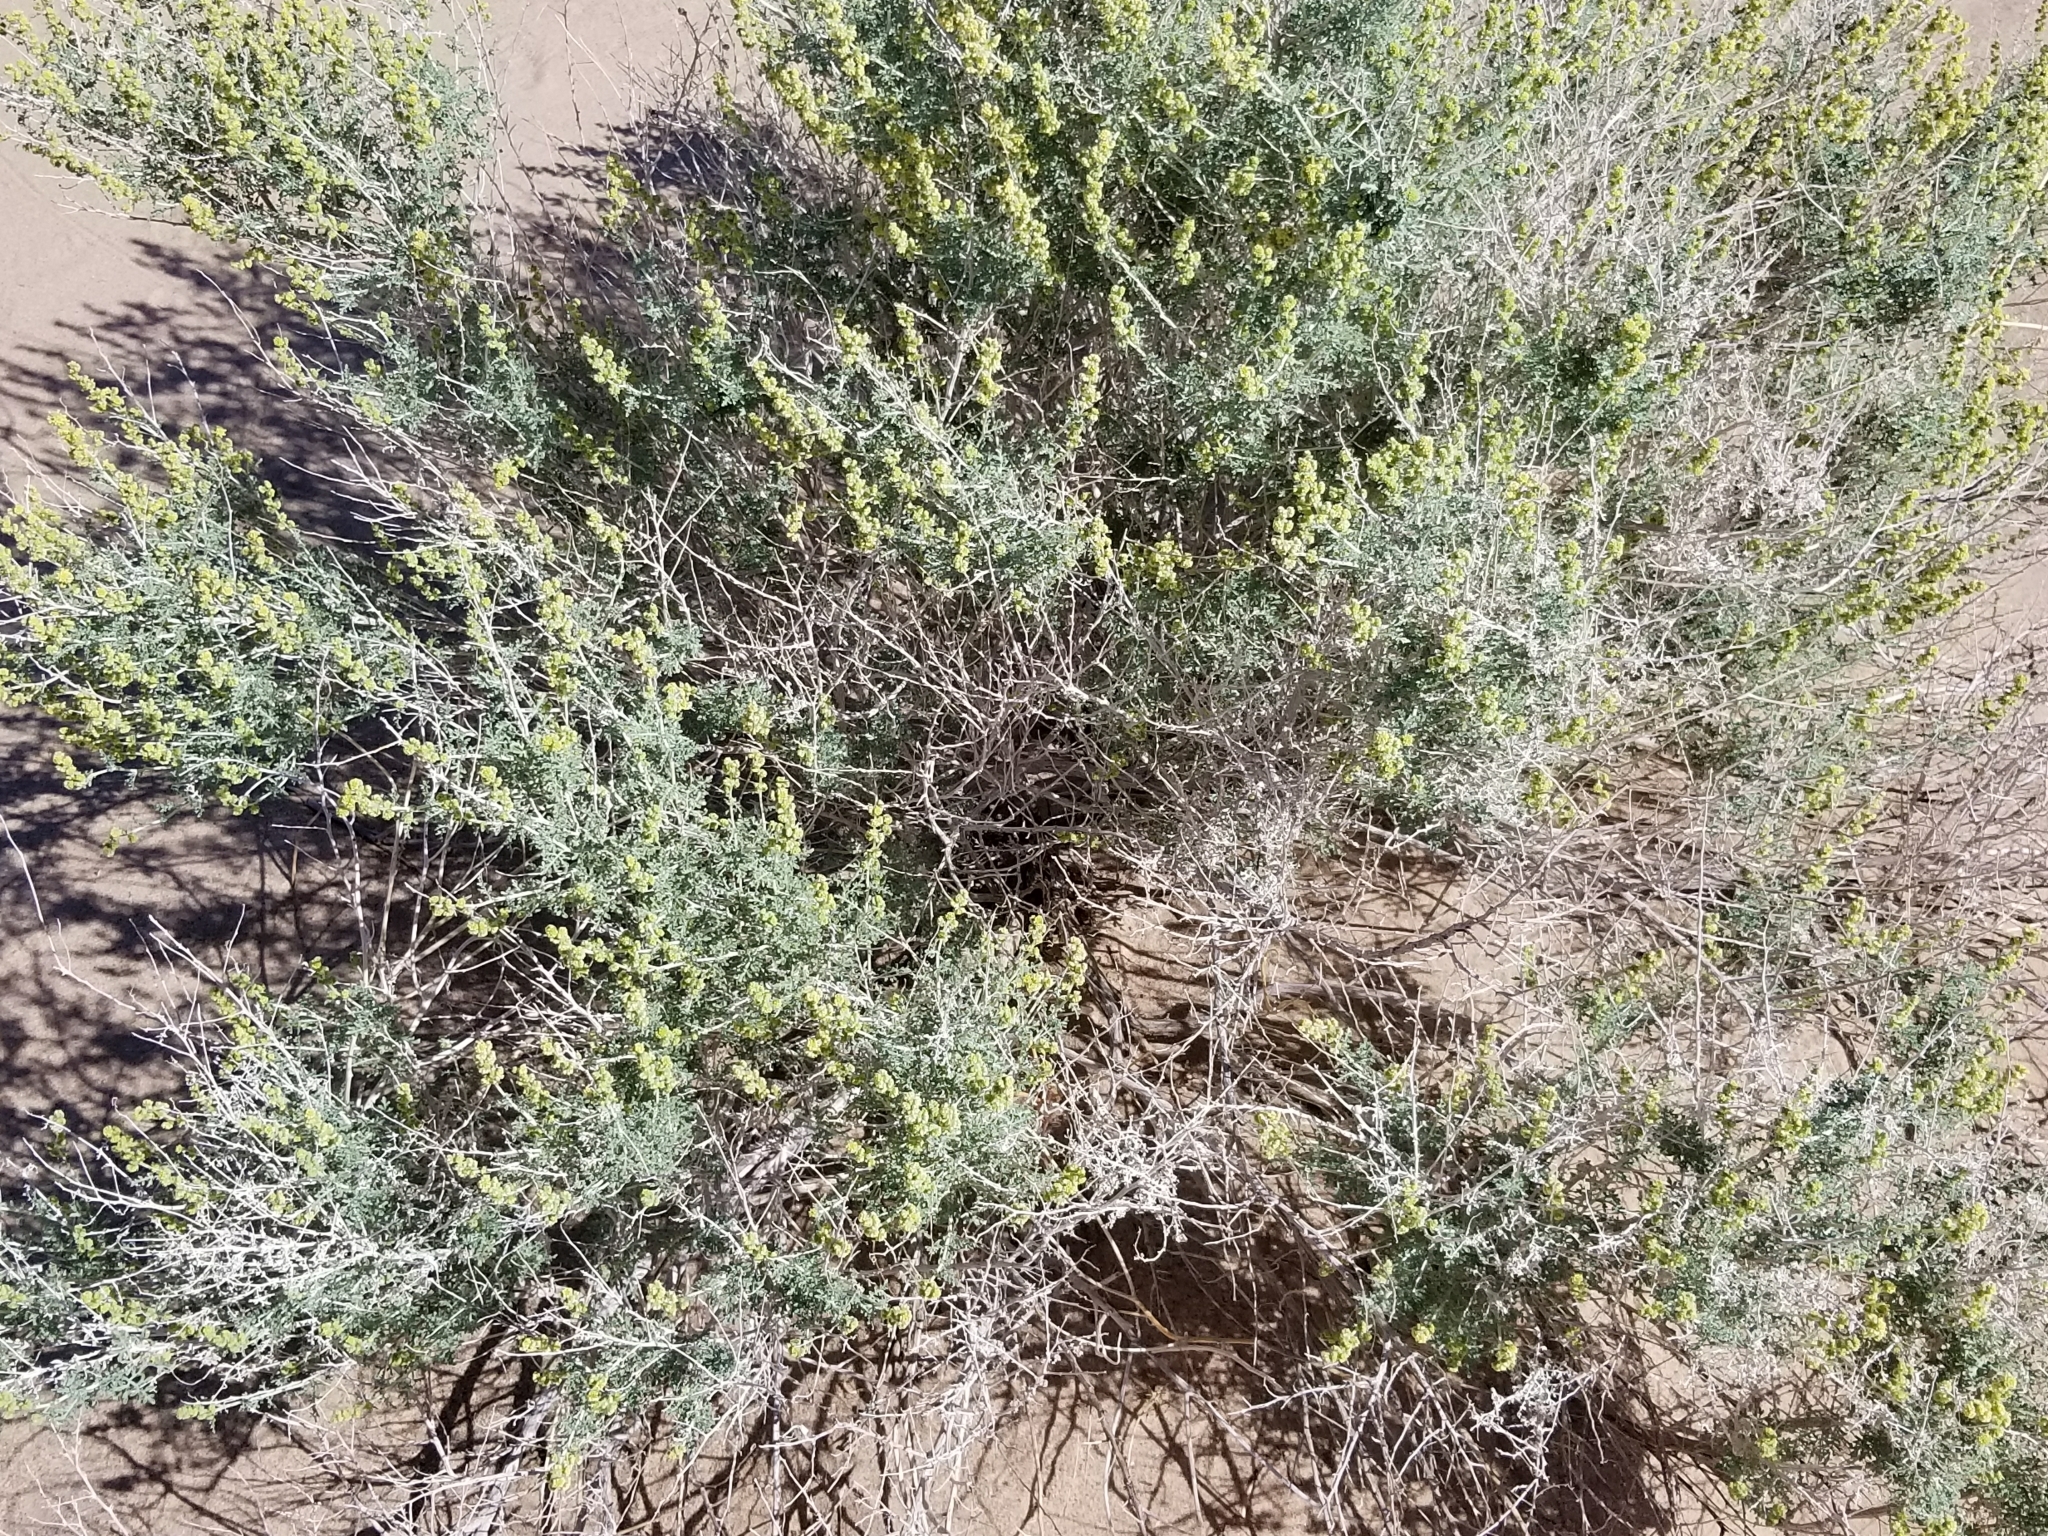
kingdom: Plantae
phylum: Tracheophyta
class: Magnoliopsida
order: Asterales
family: Asteraceae
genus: Ambrosia
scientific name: Ambrosia dumosa
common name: Bur-sage
